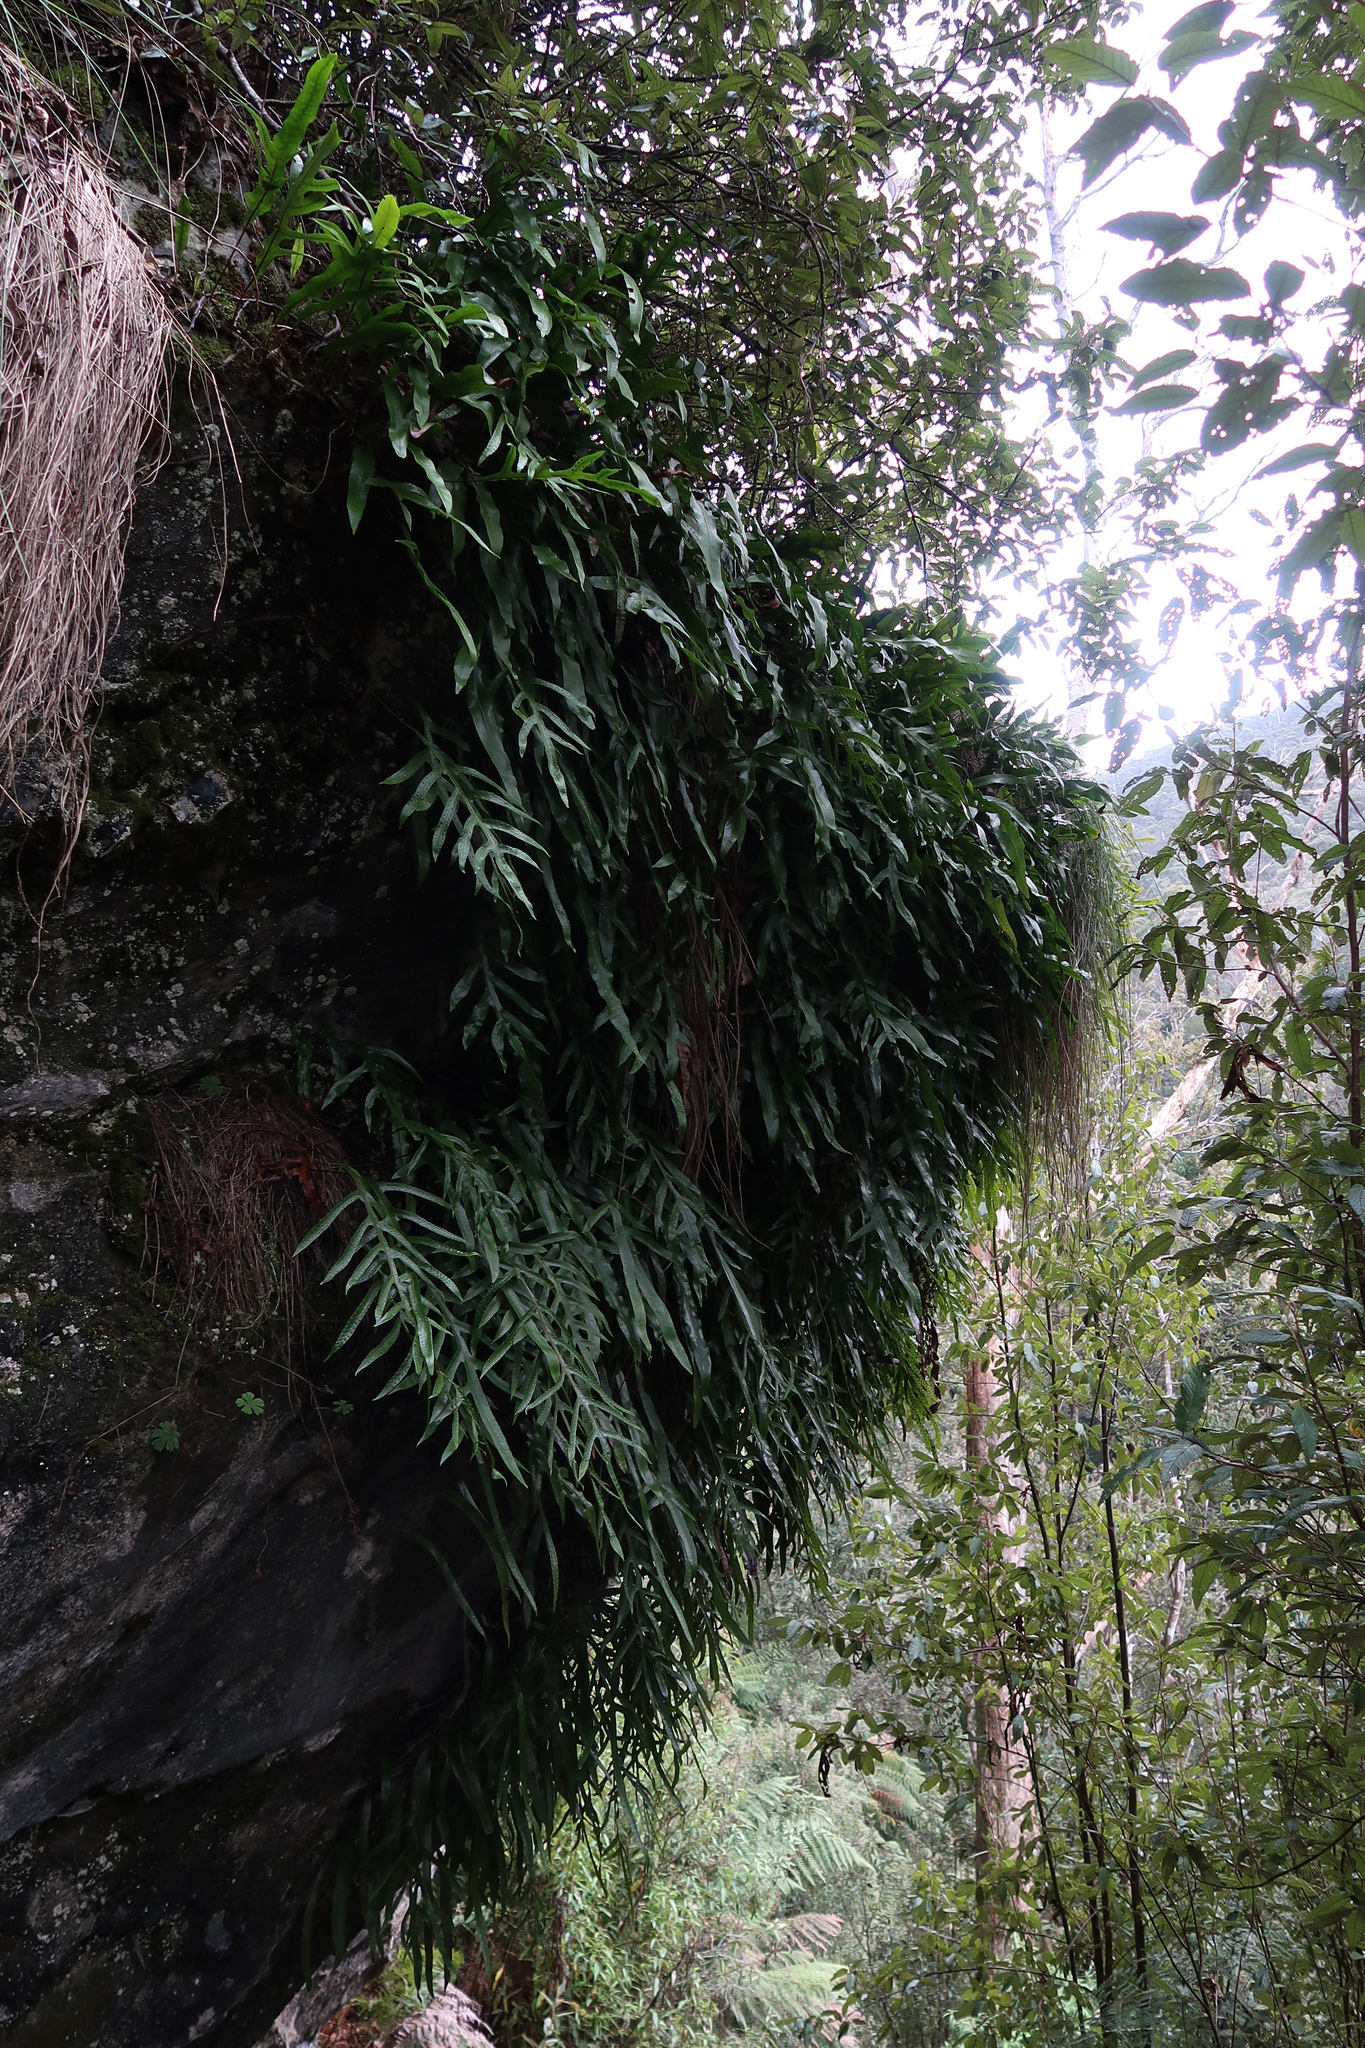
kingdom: Plantae
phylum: Tracheophyta
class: Polypodiopsida
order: Polypodiales
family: Polypodiaceae
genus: Lecanopteris
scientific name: Lecanopteris pustulata
